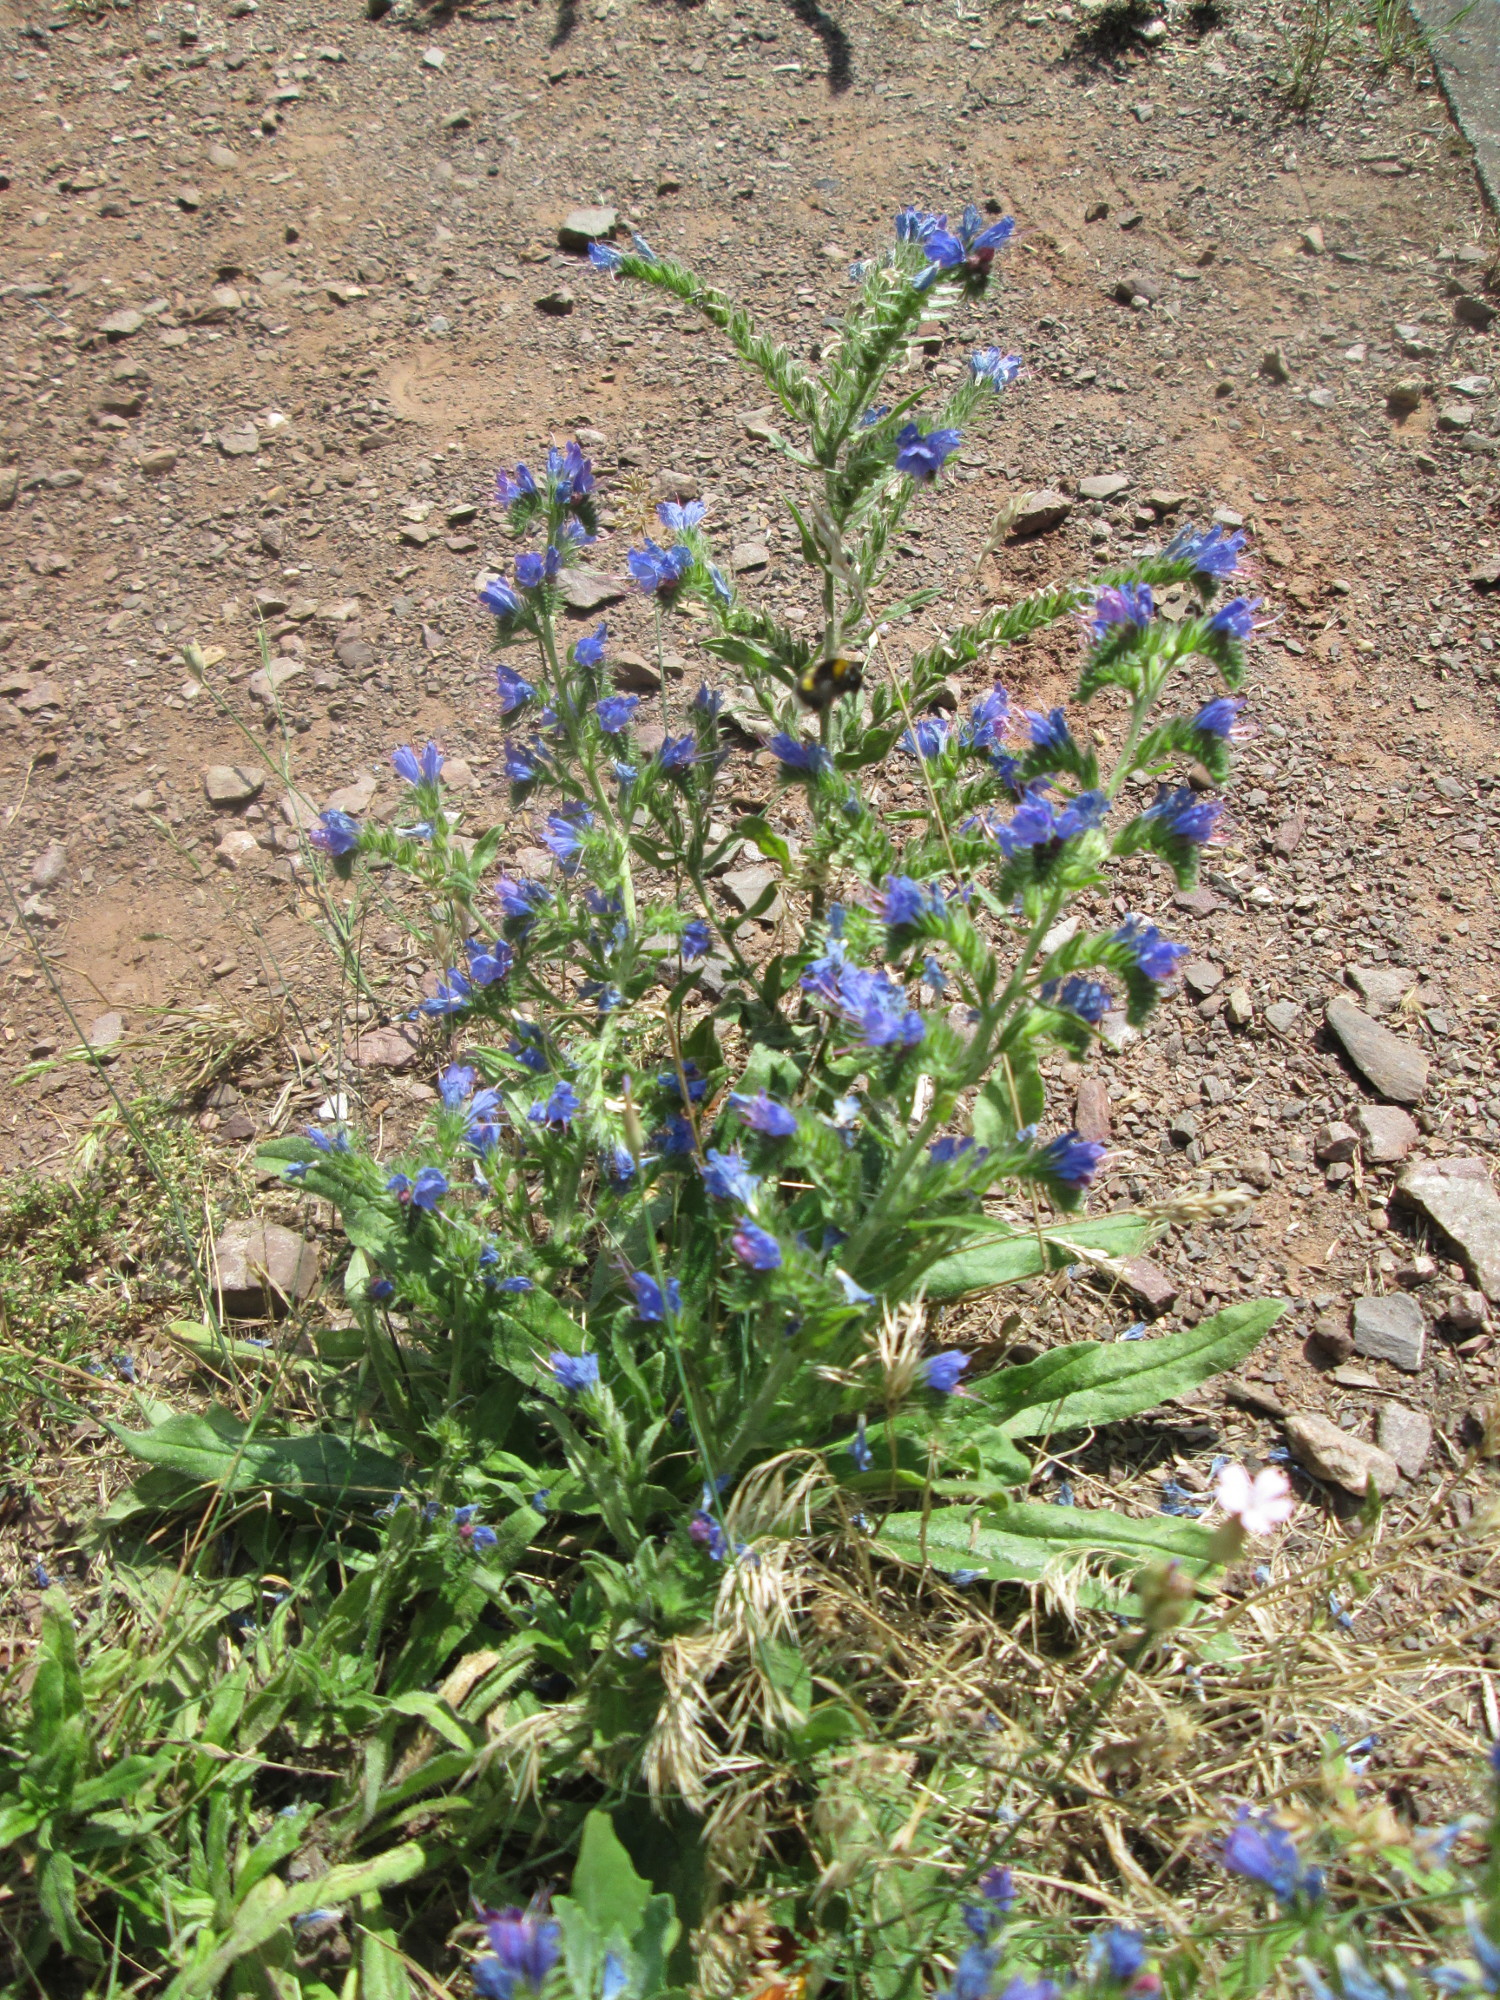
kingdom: Plantae
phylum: Tracheophyta
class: Magnoliopsida
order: Boraginales
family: Boraginaceae
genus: Echium
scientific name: Echium vulgare
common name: Common viper's bugloss
